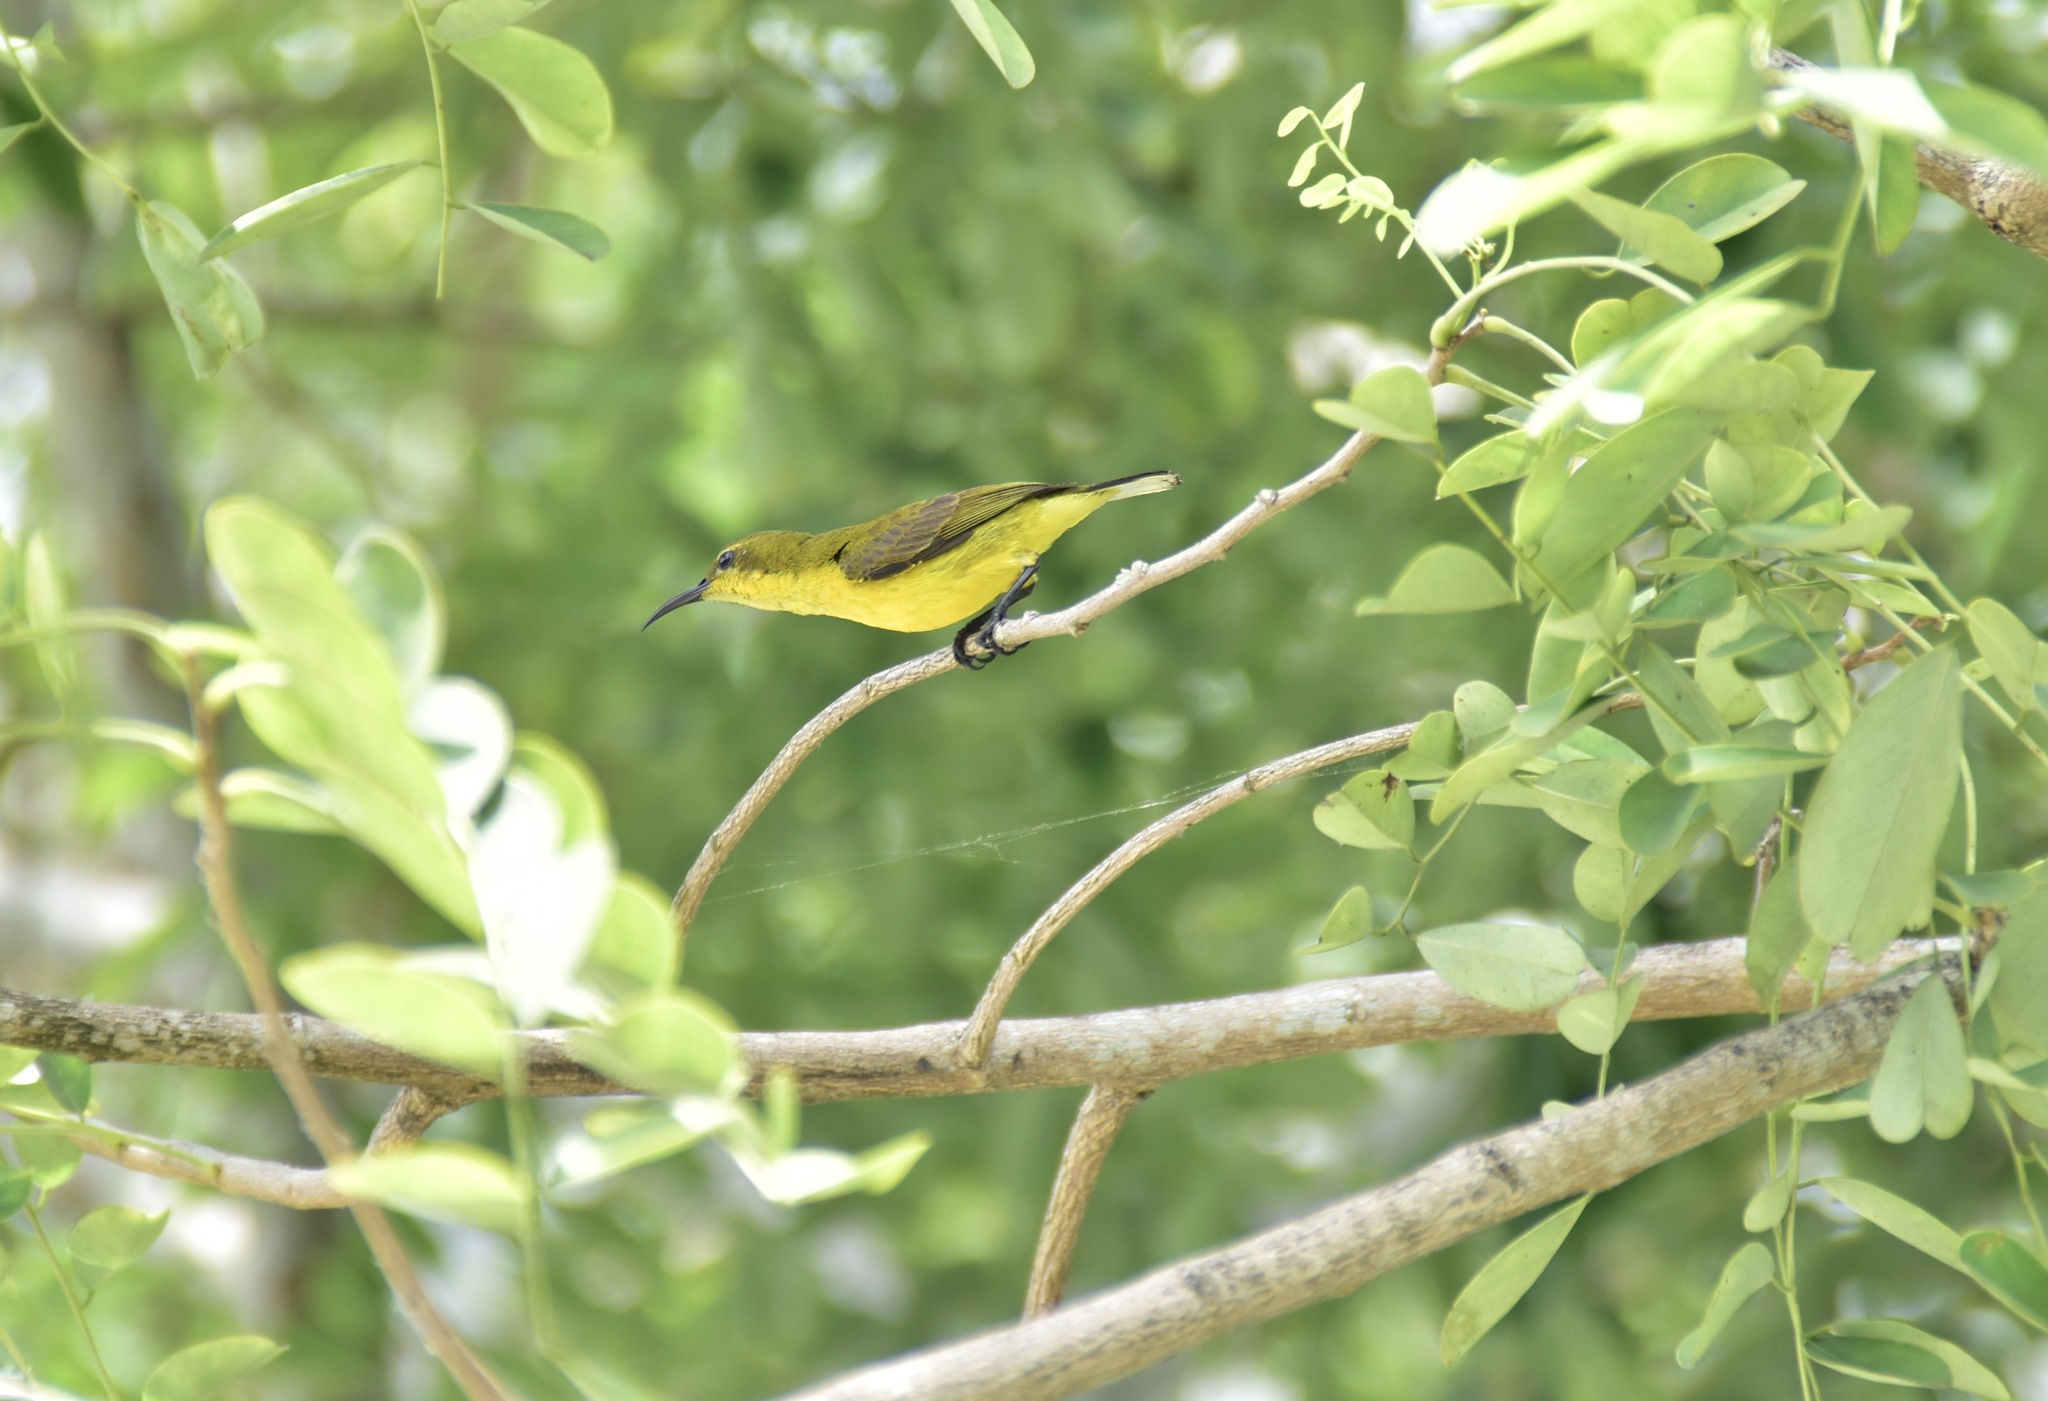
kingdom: Animalia
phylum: Chordata
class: Aves
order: Passeriformes
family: Nectariniidae
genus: Cinnyris
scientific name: Cinnyris
